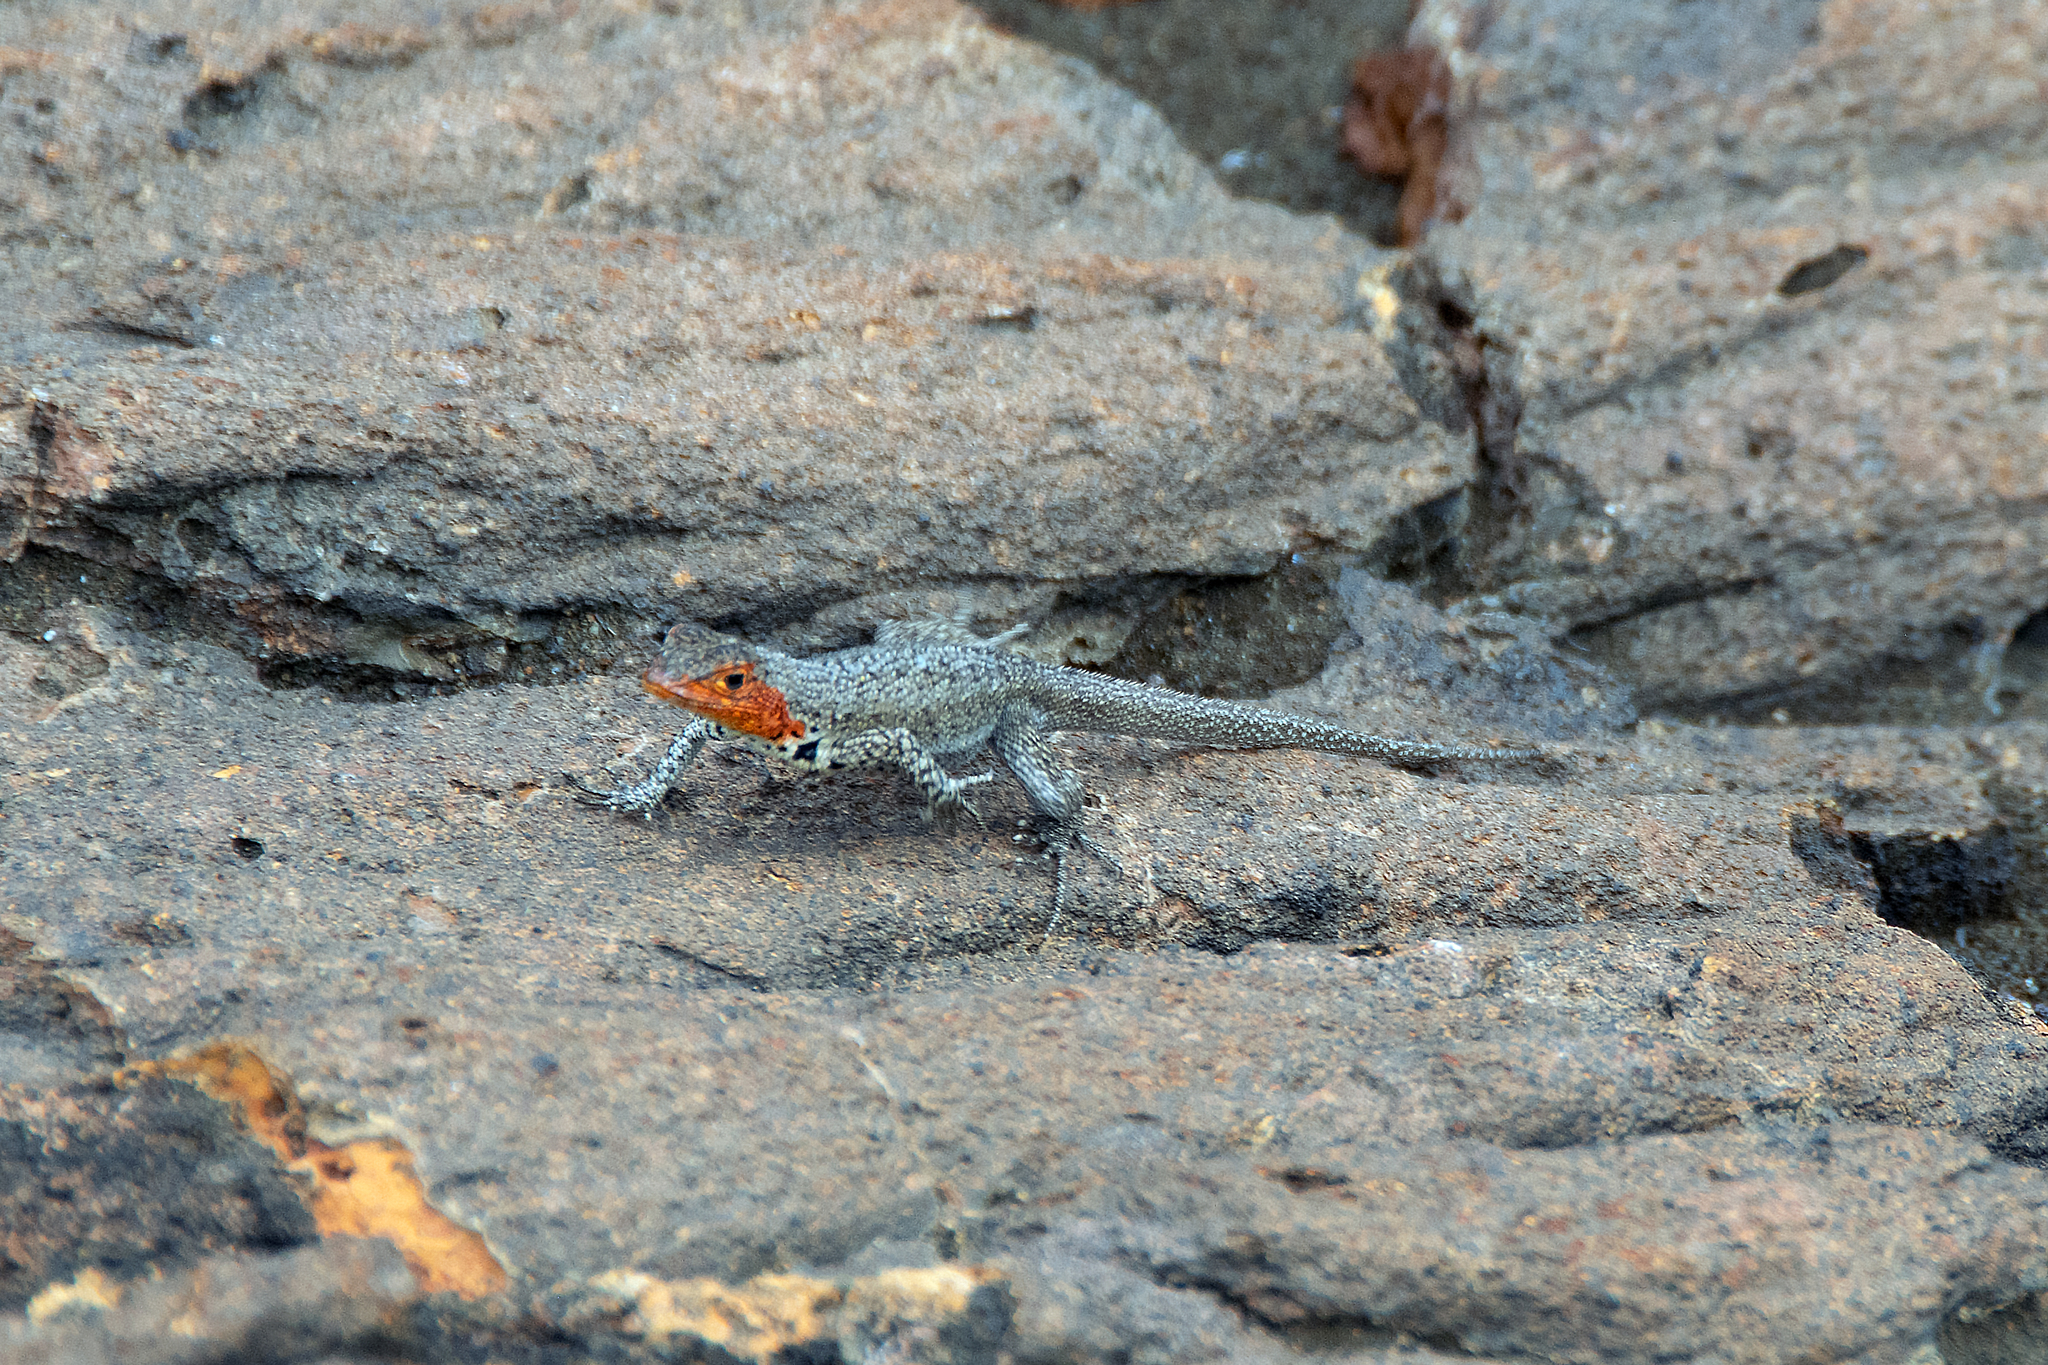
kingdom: Animalia
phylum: Chordata
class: Squamata
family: Tropiduridae
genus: Microlophus
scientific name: Microlophus jacobii
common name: Santiago lava lizard
